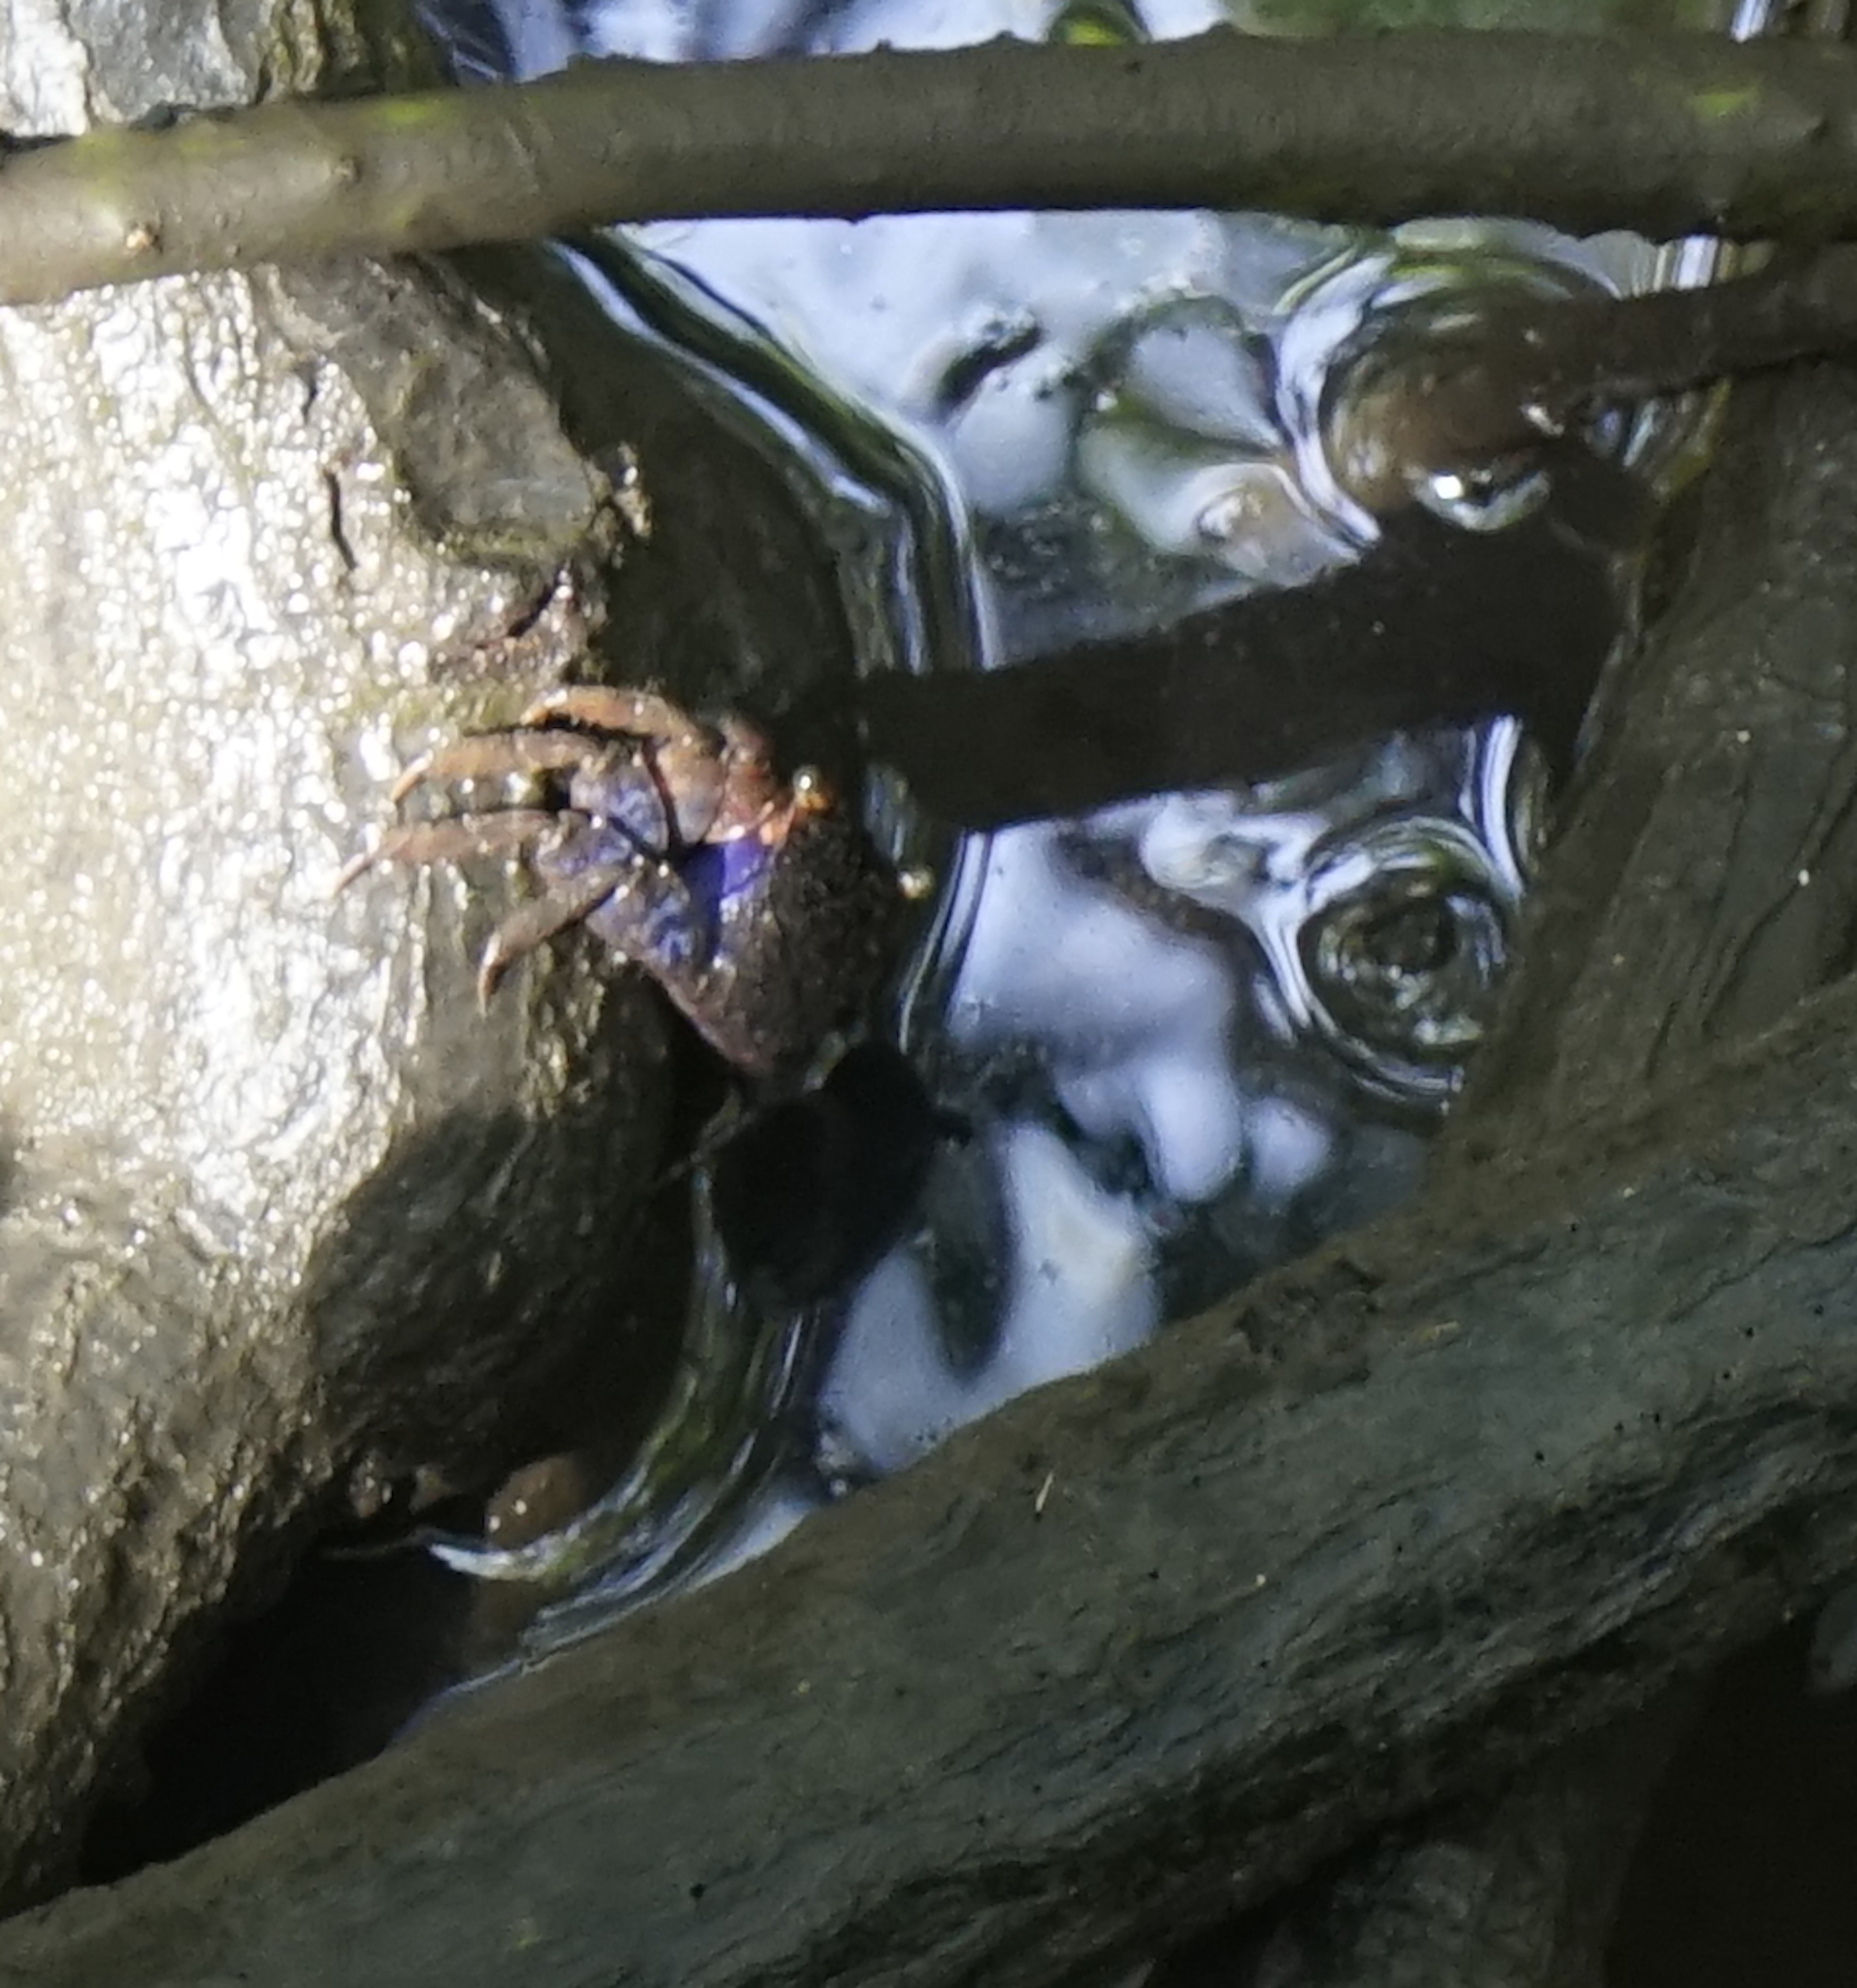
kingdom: Animalia
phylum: Arthropoda
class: Malacostraca
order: Decapoda
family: Sesarmidae
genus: Parasesarma
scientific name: Parasesarma indiarum
